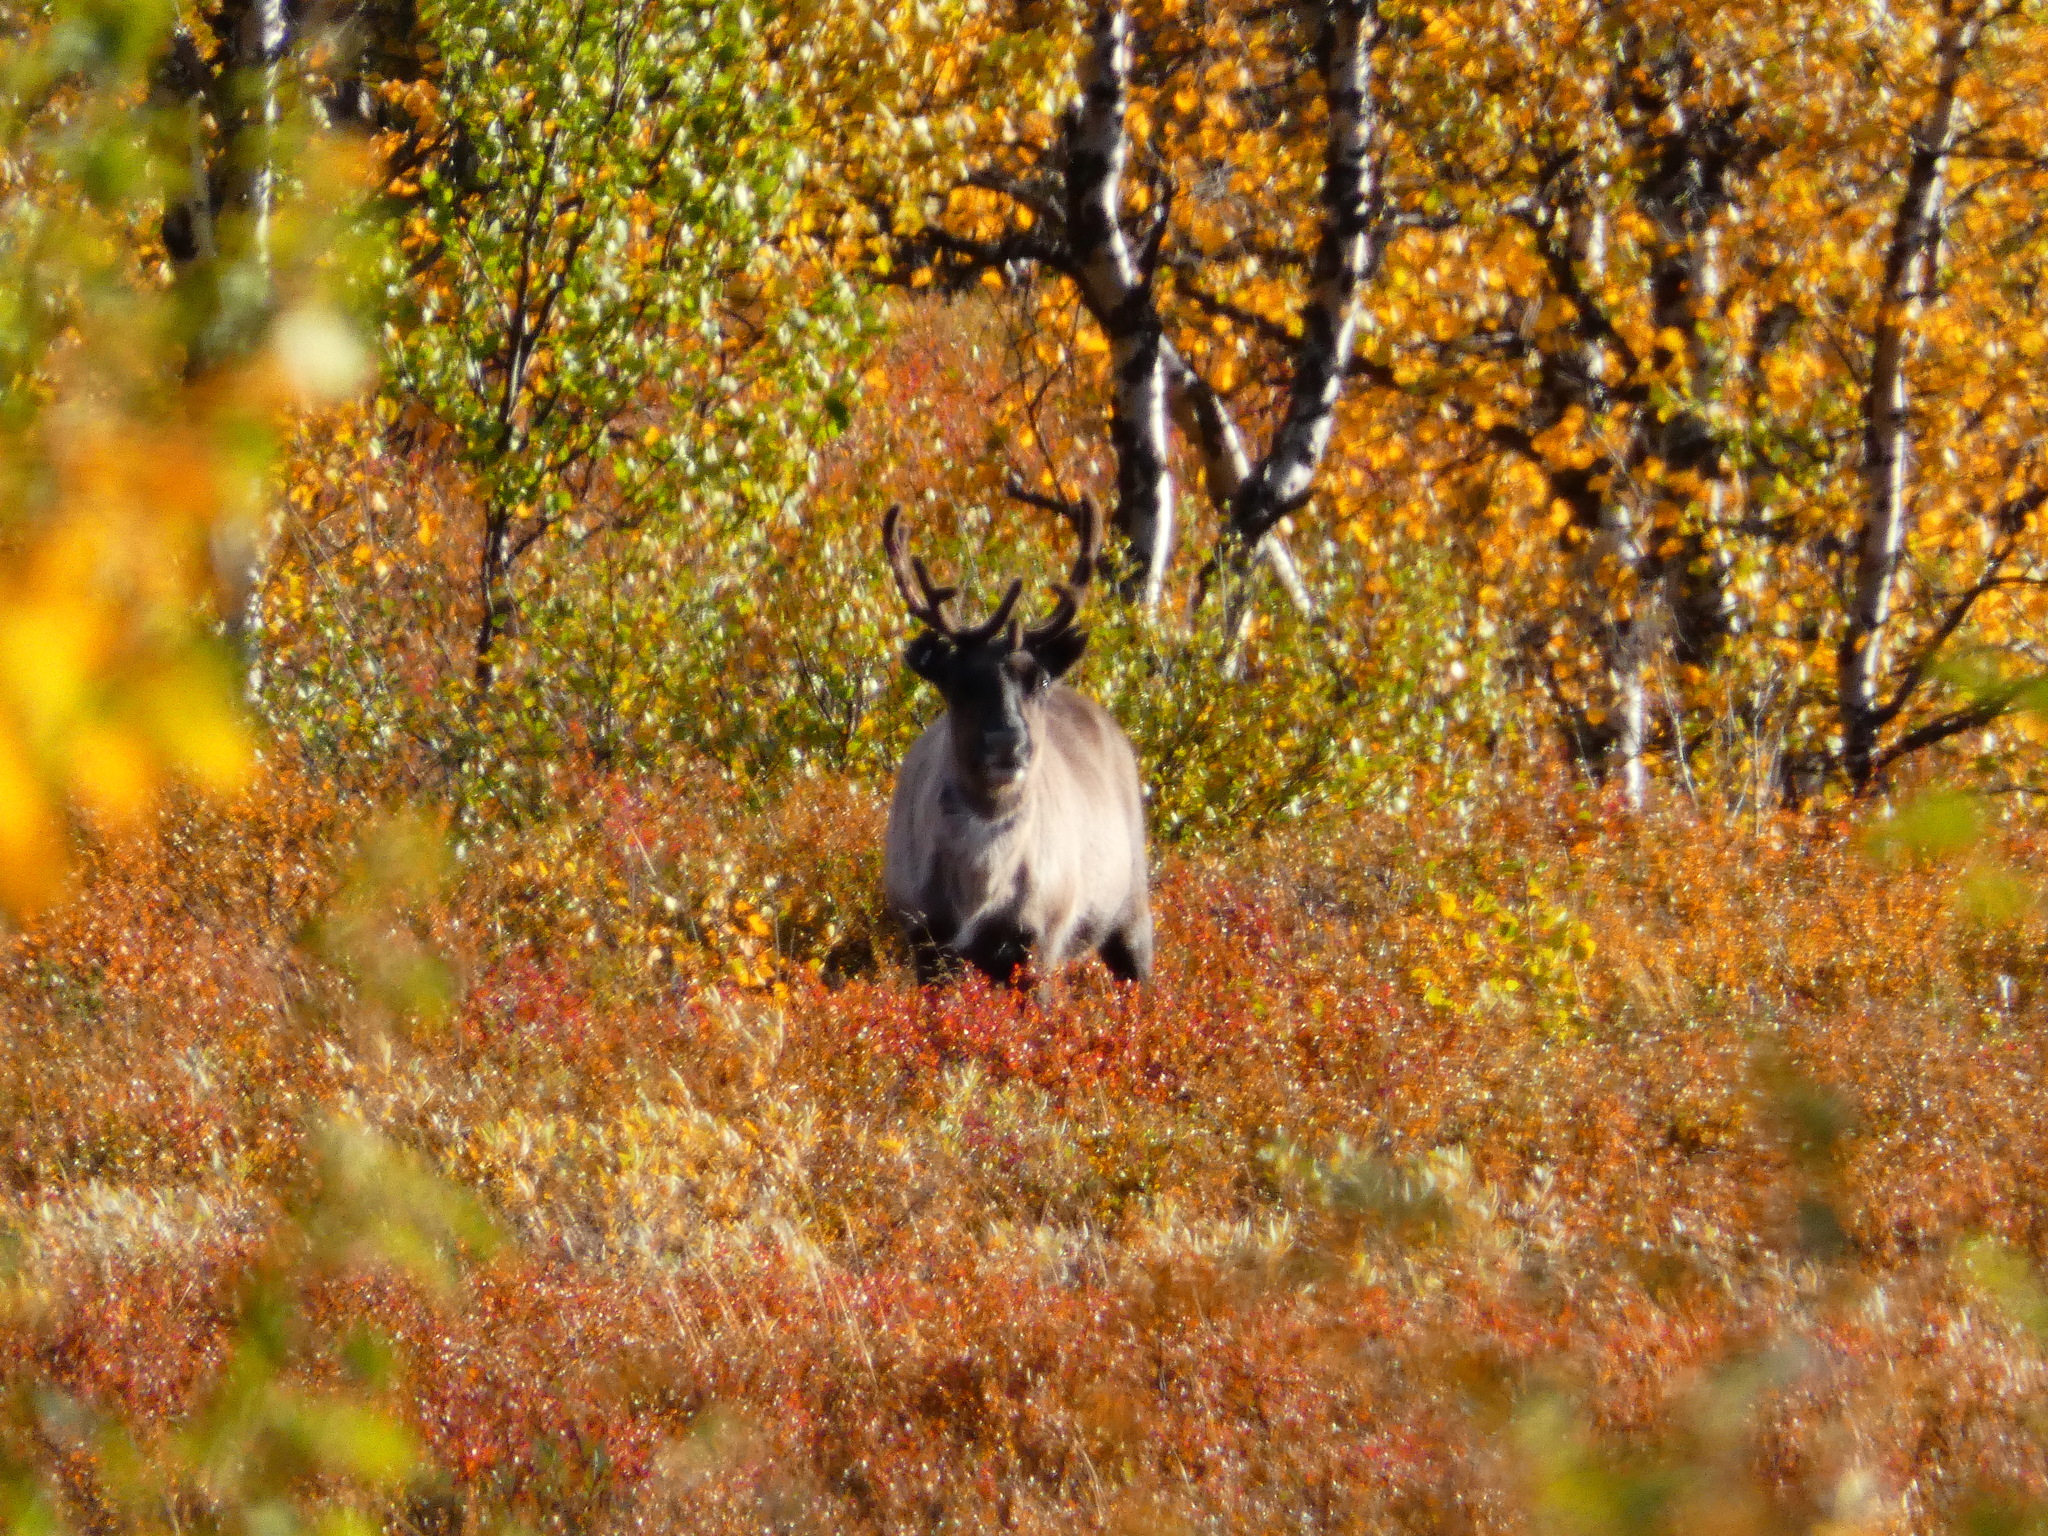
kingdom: Animalia
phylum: Chordata
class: Mammalia
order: Artiodactyla
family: Cervidae
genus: Rangifer
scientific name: Rangifer tarandus
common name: Reindeer
